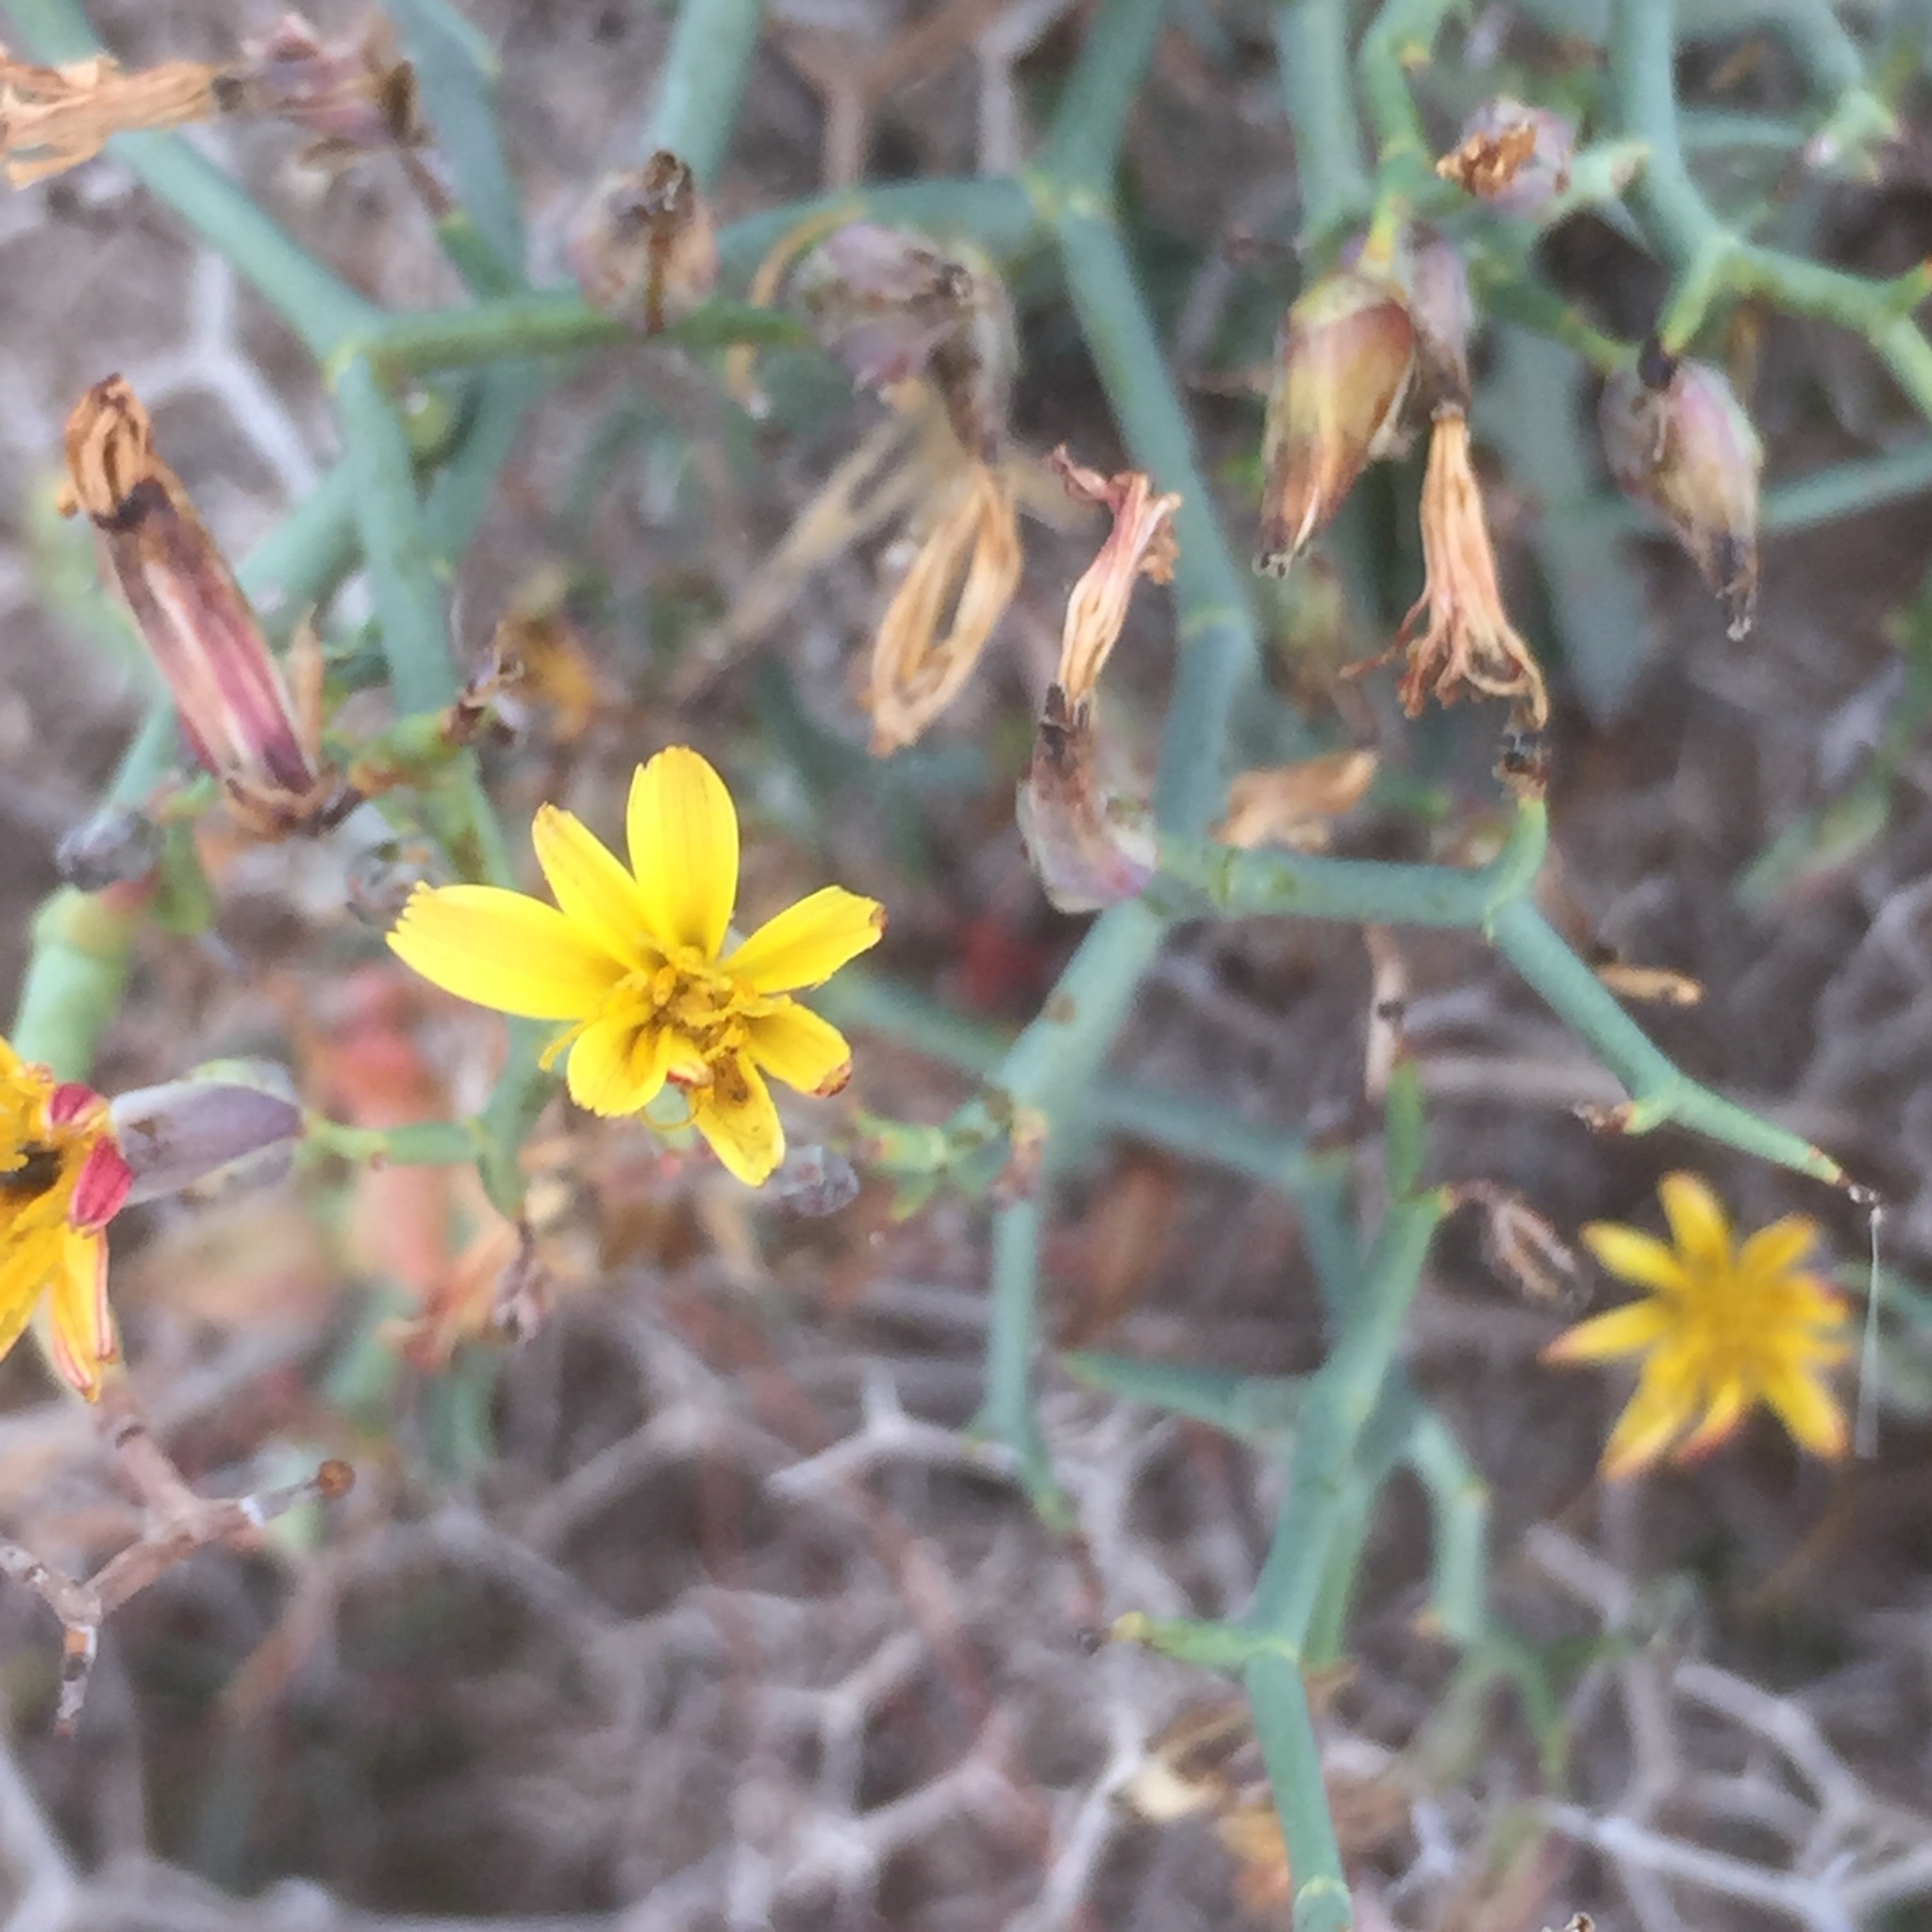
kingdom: Plantae
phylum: Tracheophyta
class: Magnoliopsida
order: Asterales
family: Asteraceae
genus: Launaea
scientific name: Launaea arborescens
